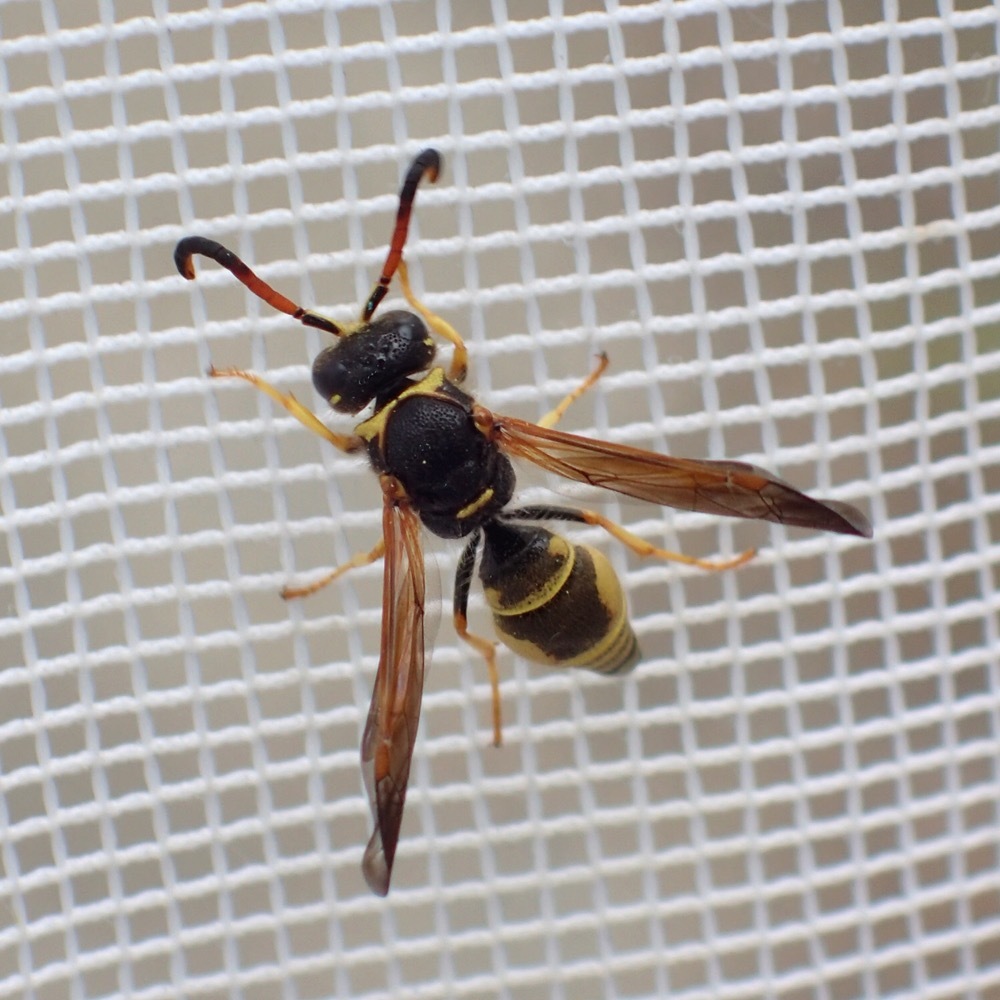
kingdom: Animalia
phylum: Arthropoda
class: Insecta
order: Hymenoptera
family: Vespidae
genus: Ancistrocerus
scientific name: Ancistrocerus tuberculocephalus
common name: Vespid wasp
